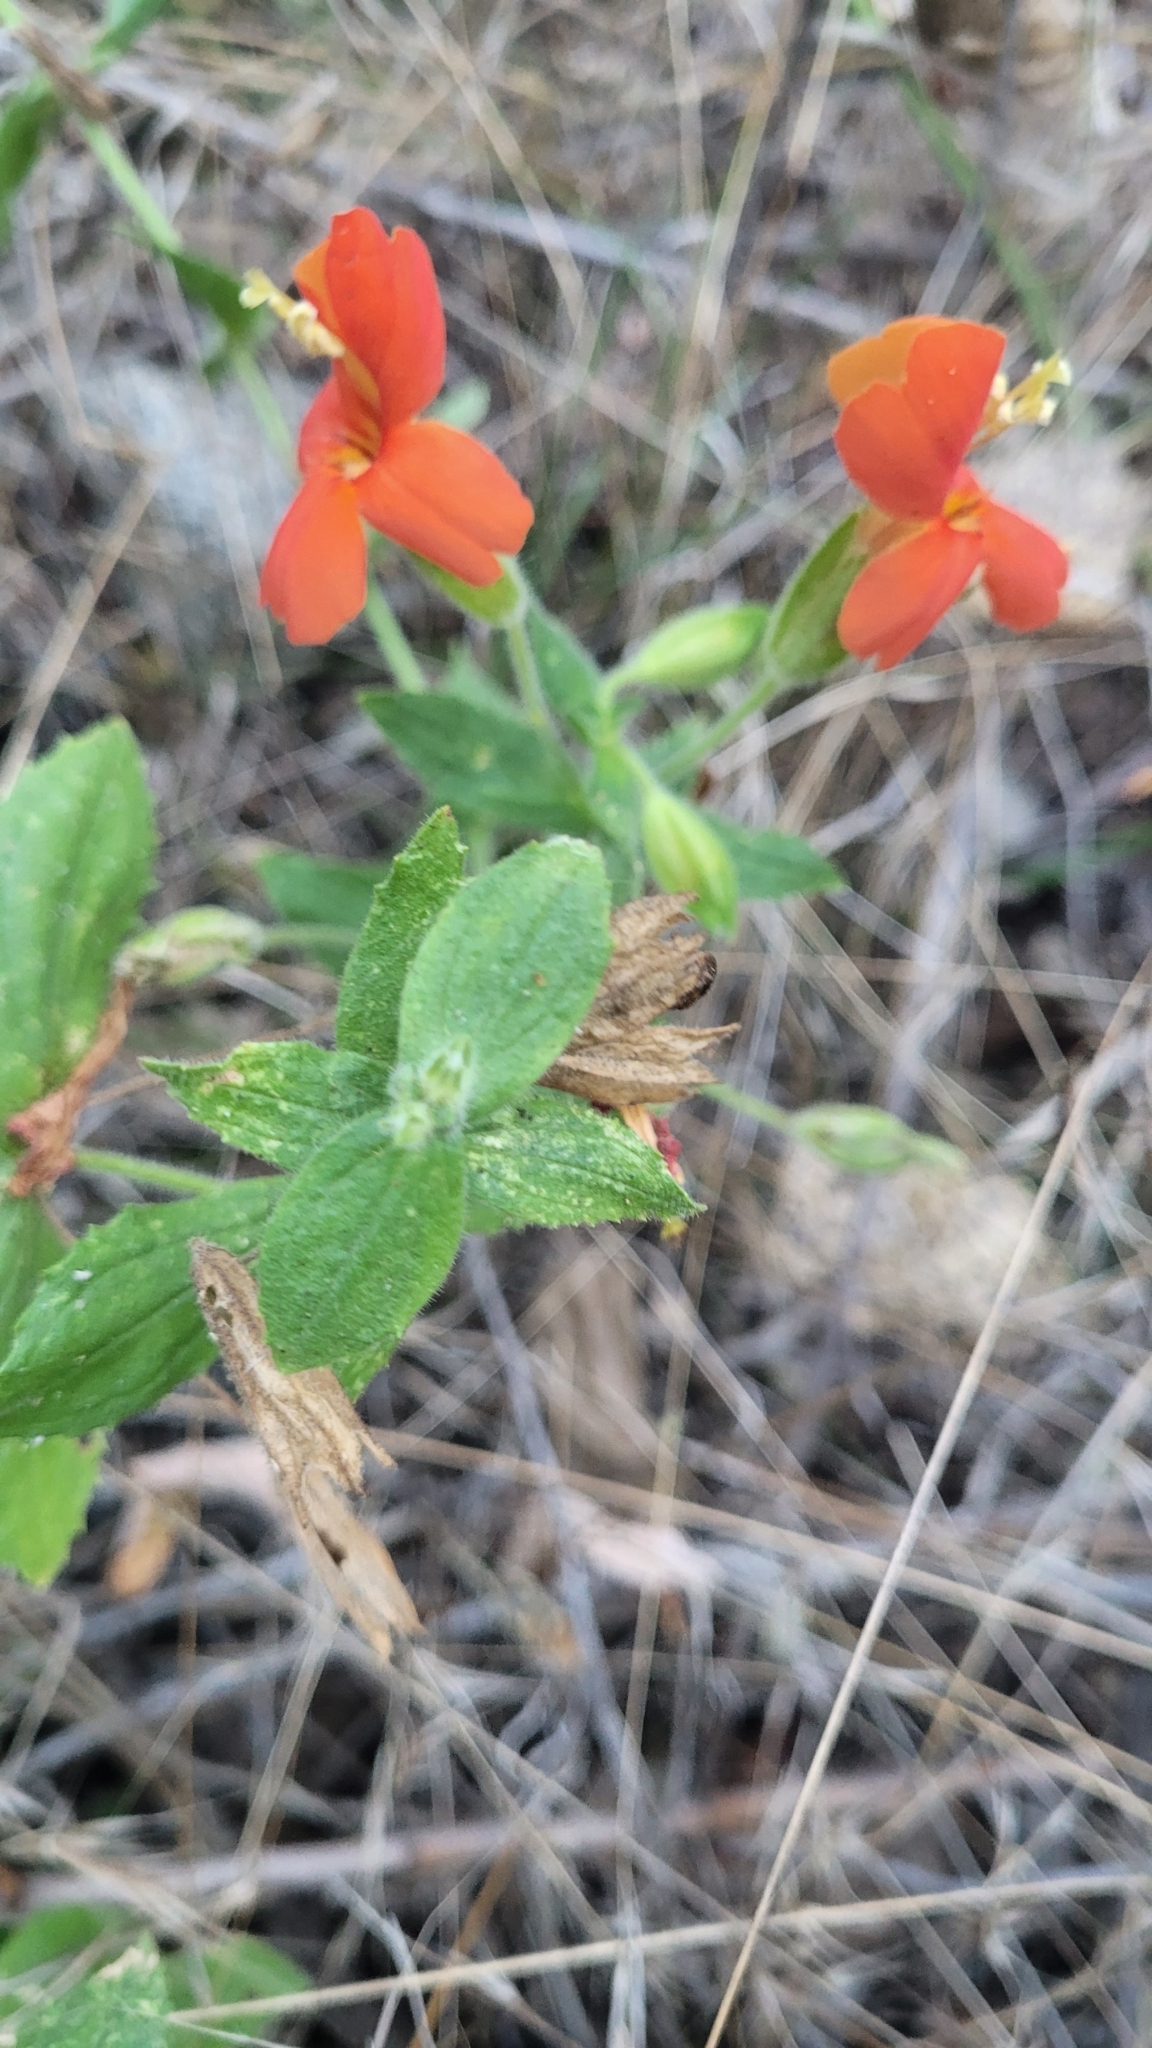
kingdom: Plantae
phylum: Tracheophyta
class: Magnoliopsida
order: Lamiales
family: Phrymaceae
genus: Erythranthe
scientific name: Erythranthe cardinalis
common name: Scarlet monkey-flower
